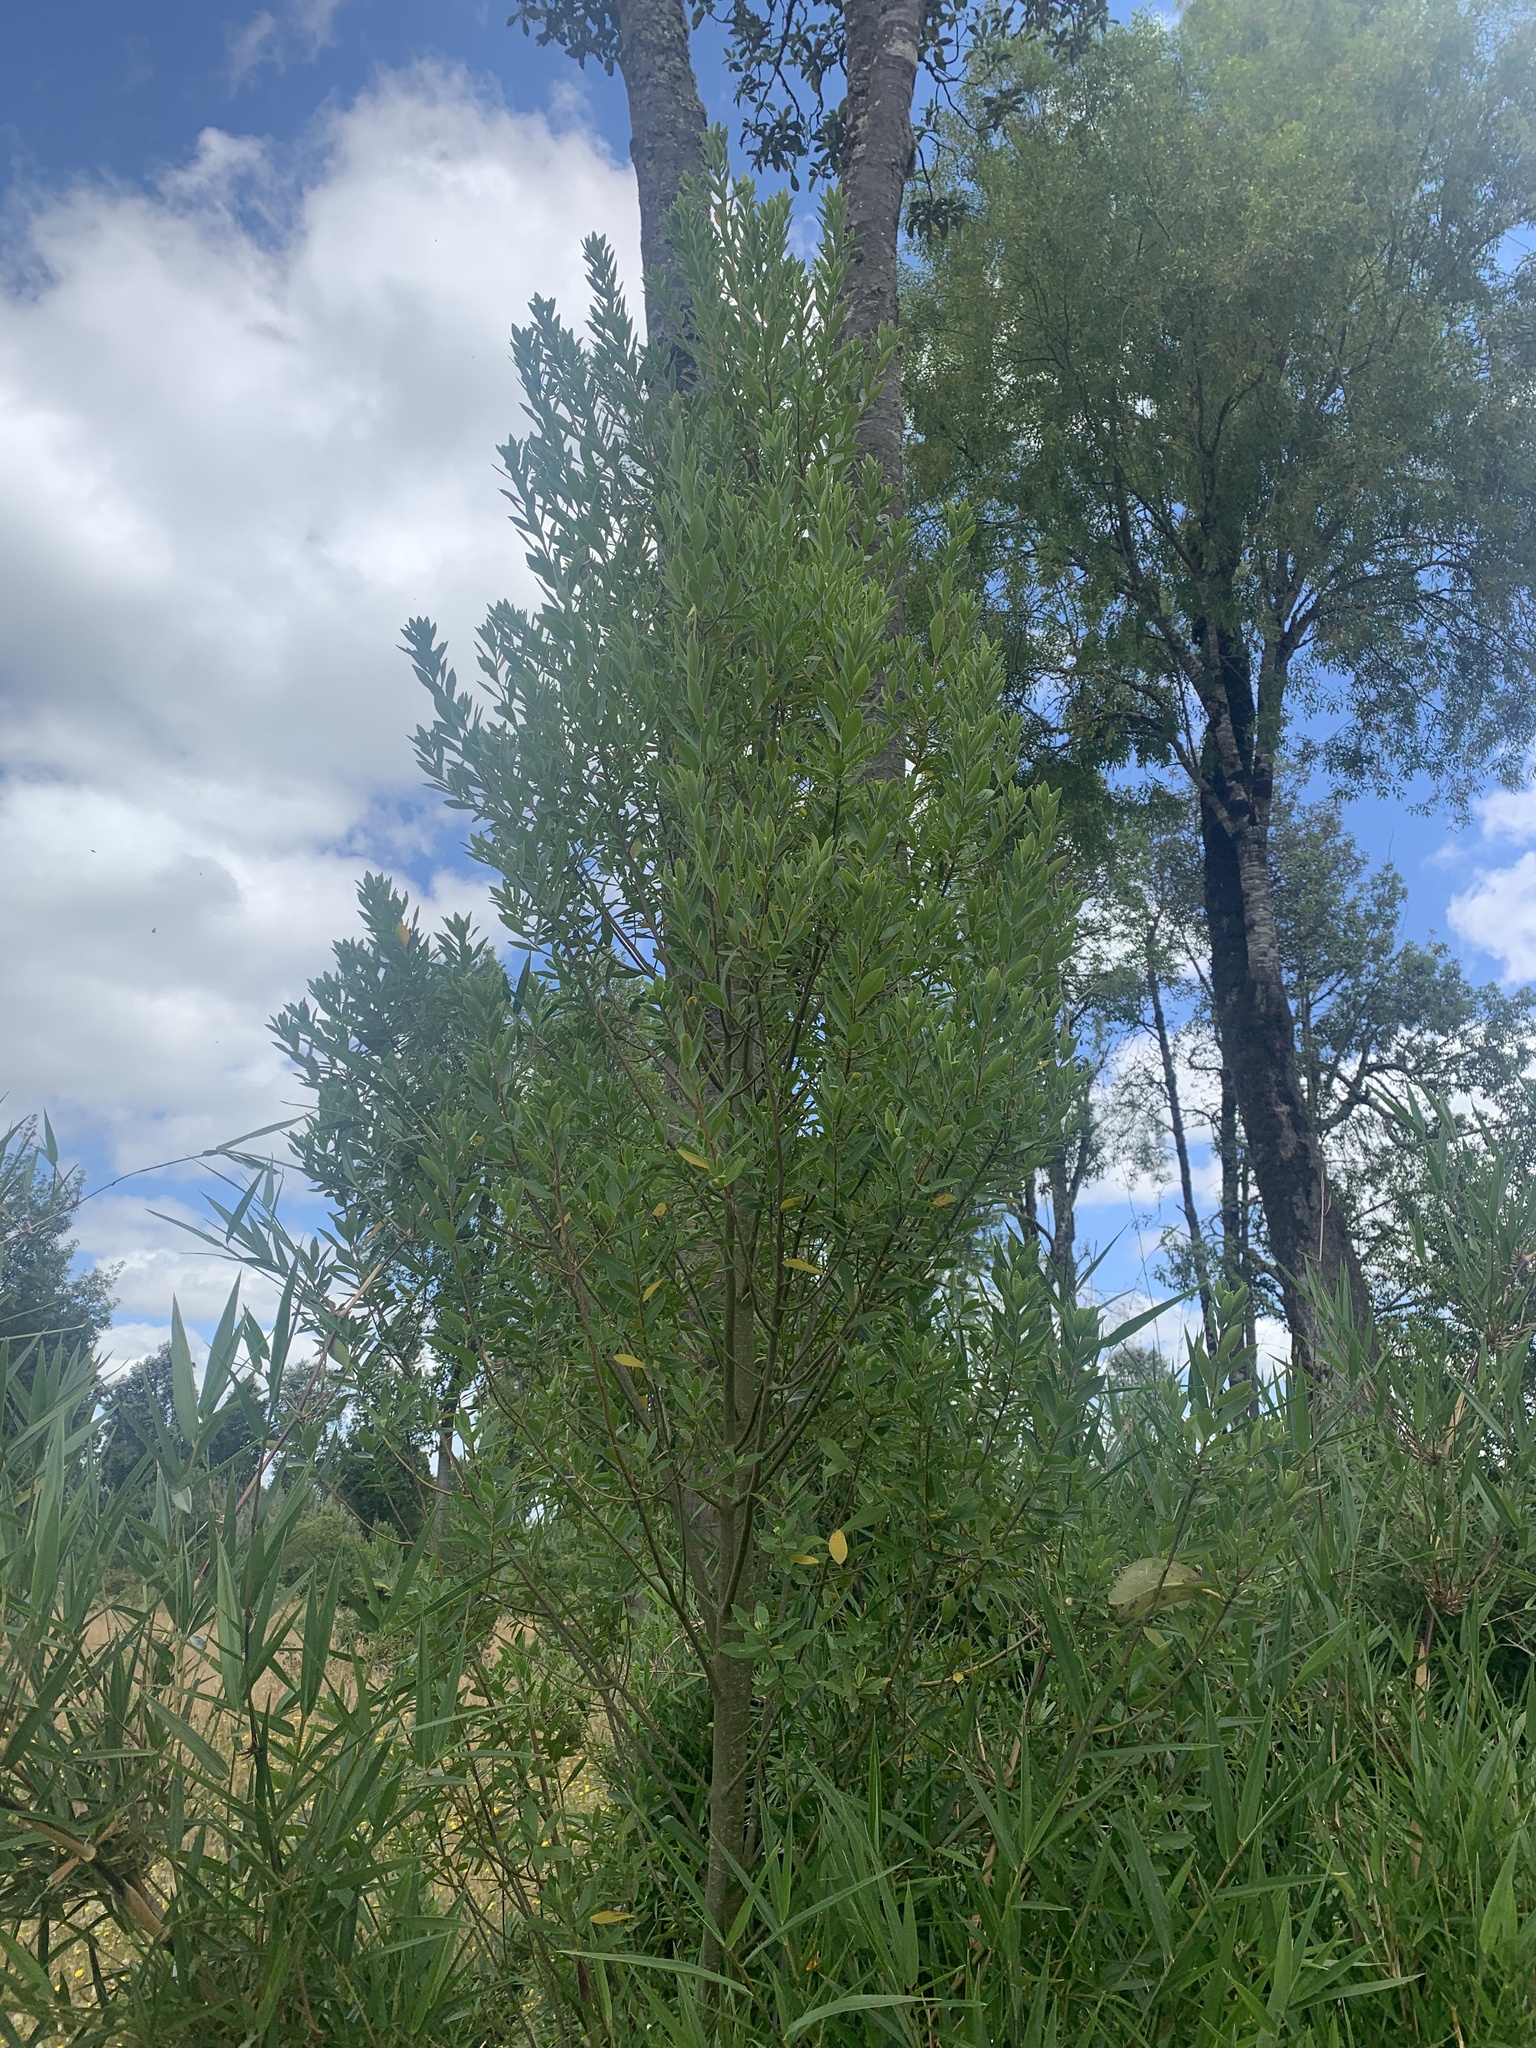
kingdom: Plantae
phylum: Tracheophyta
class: Magnoliopsida
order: Malvales
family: Thymelaeaceae
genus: Ovidia
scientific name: Ovidia andina
